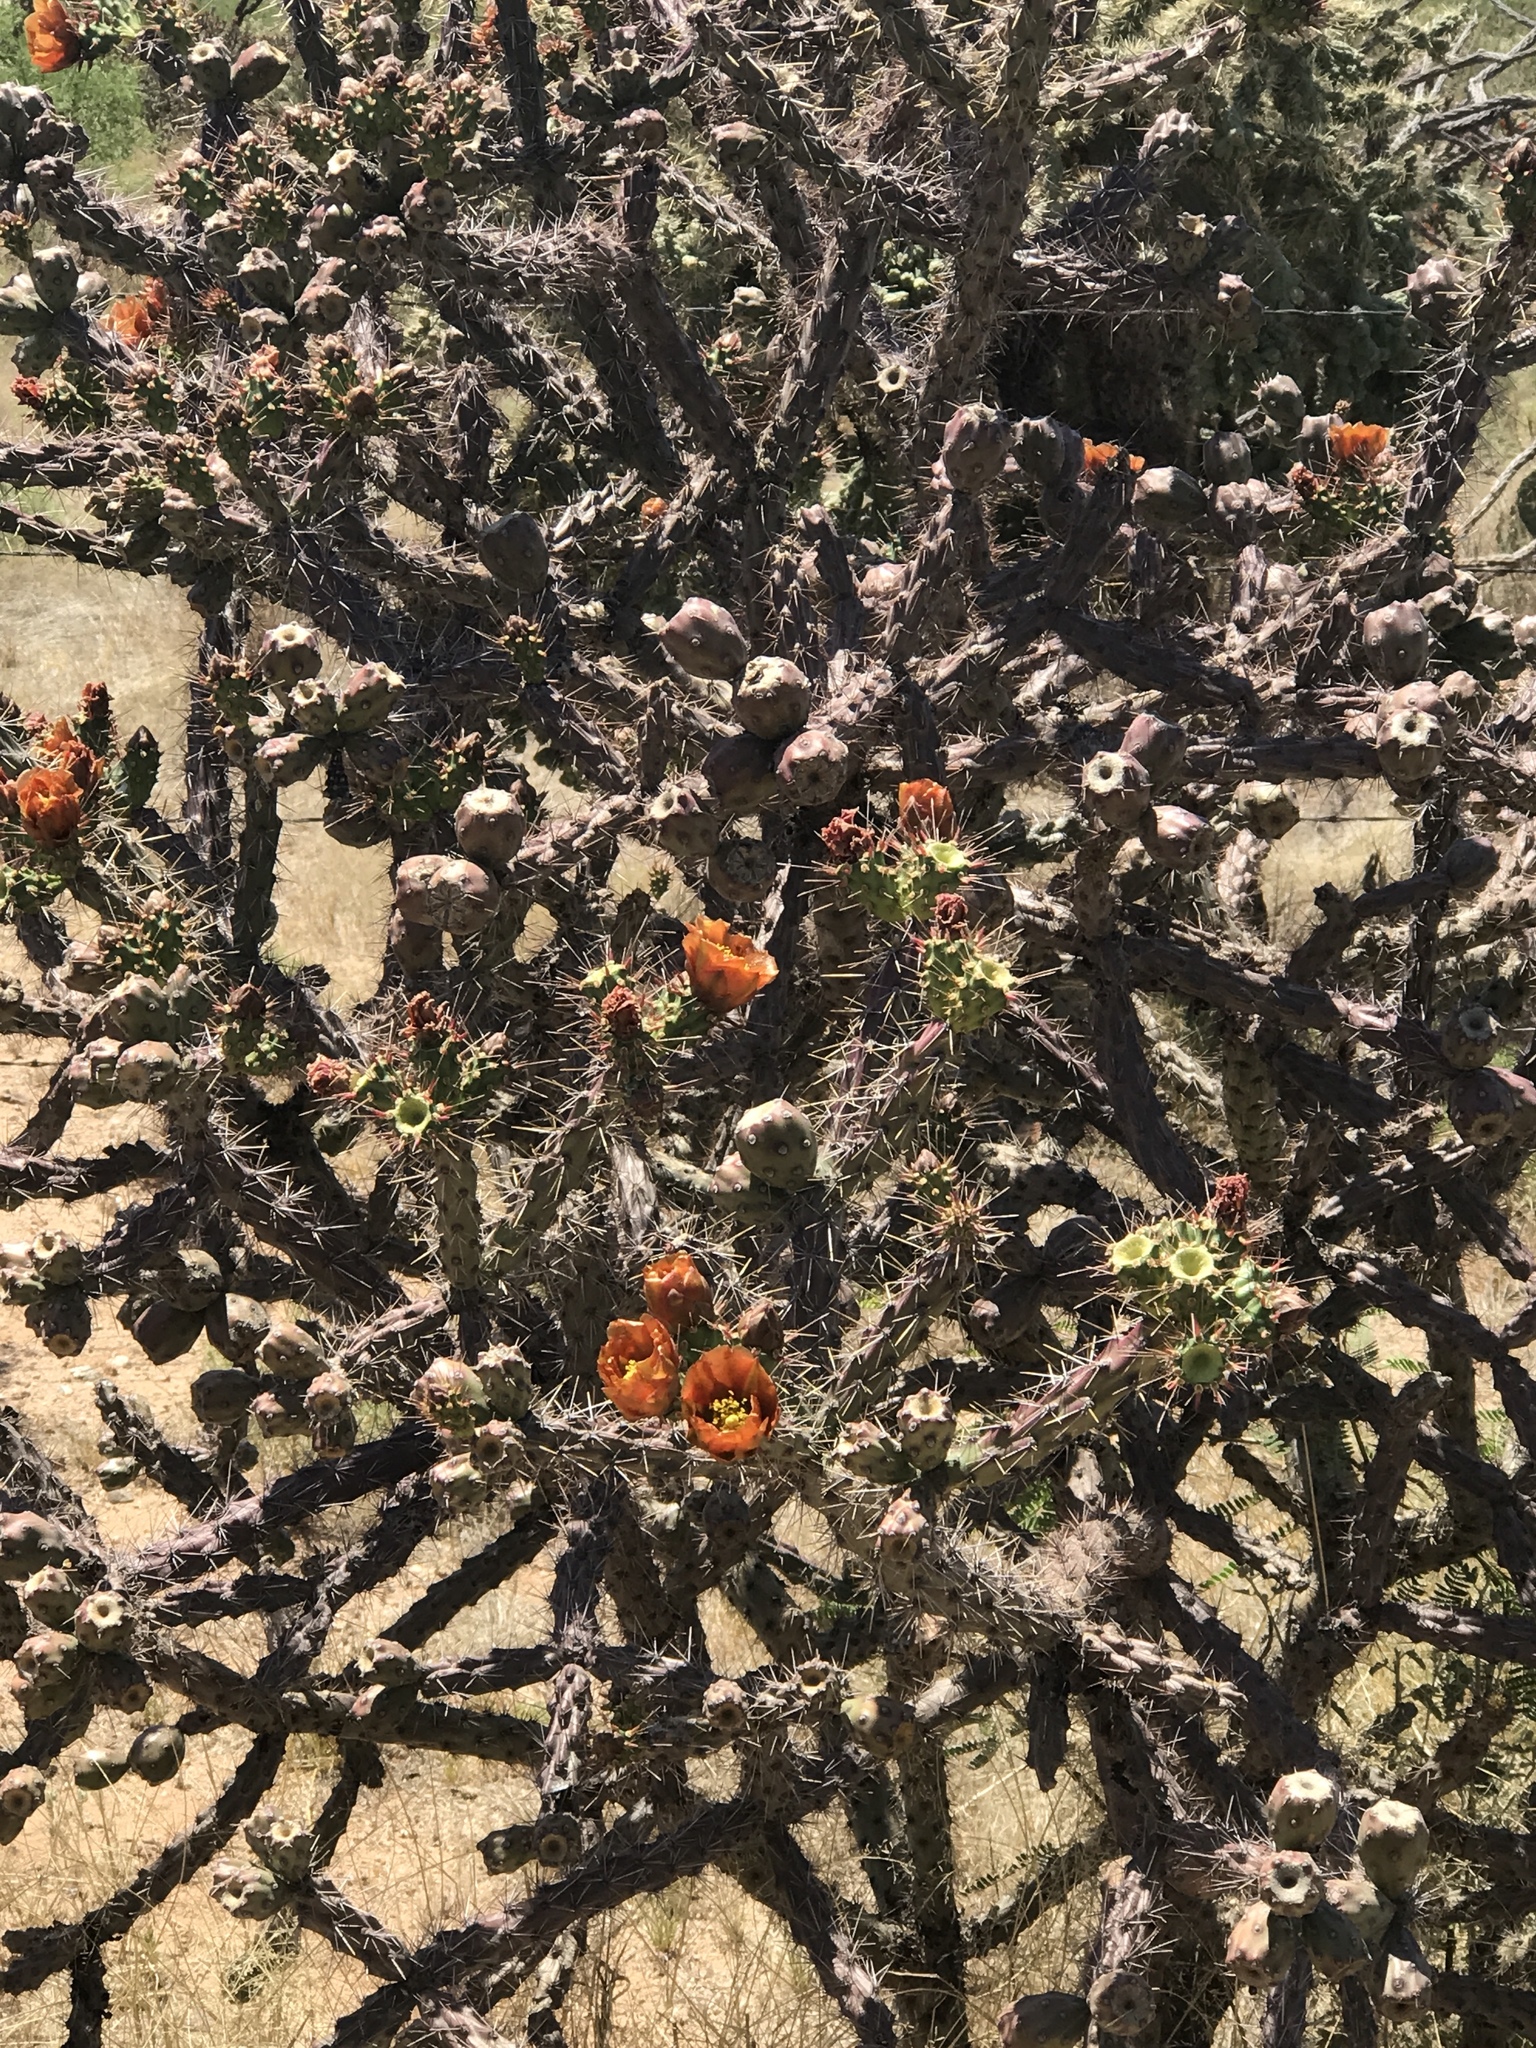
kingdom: Plantae
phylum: Tracheophyta
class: Magnoliopsida
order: Caryophyllales
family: Cactaceae
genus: Cylindropuntia
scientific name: Cylindropuntia thurberi
